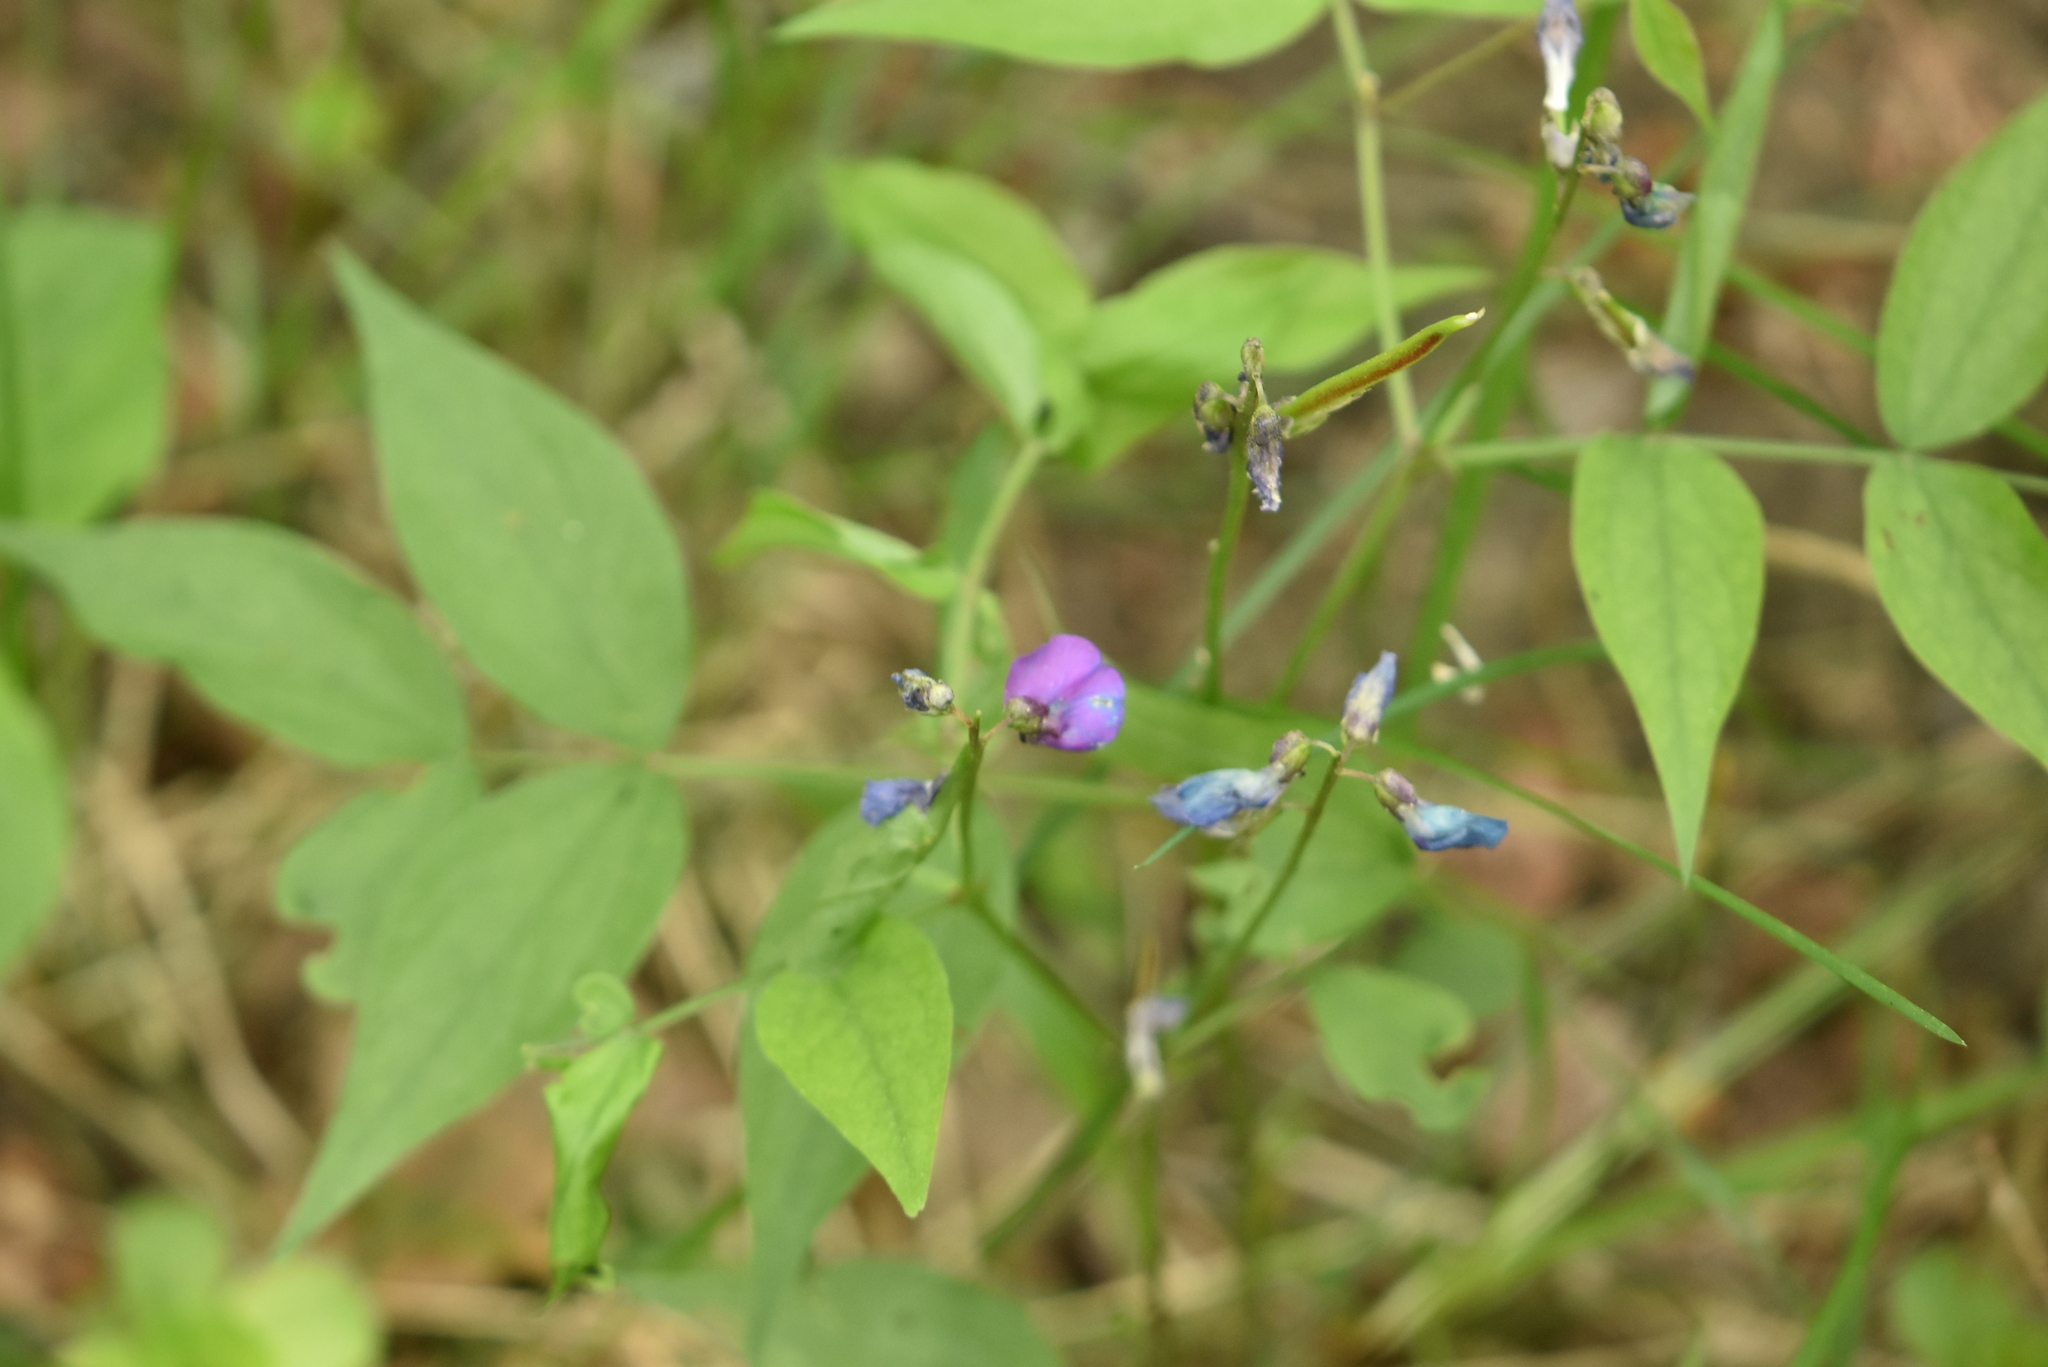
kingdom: Plantae
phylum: Tracheophyta
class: Magnoliopsida
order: Fabales
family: Fabaceae
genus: Lathyrus
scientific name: Lathyrus vernus
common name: Spring pea
